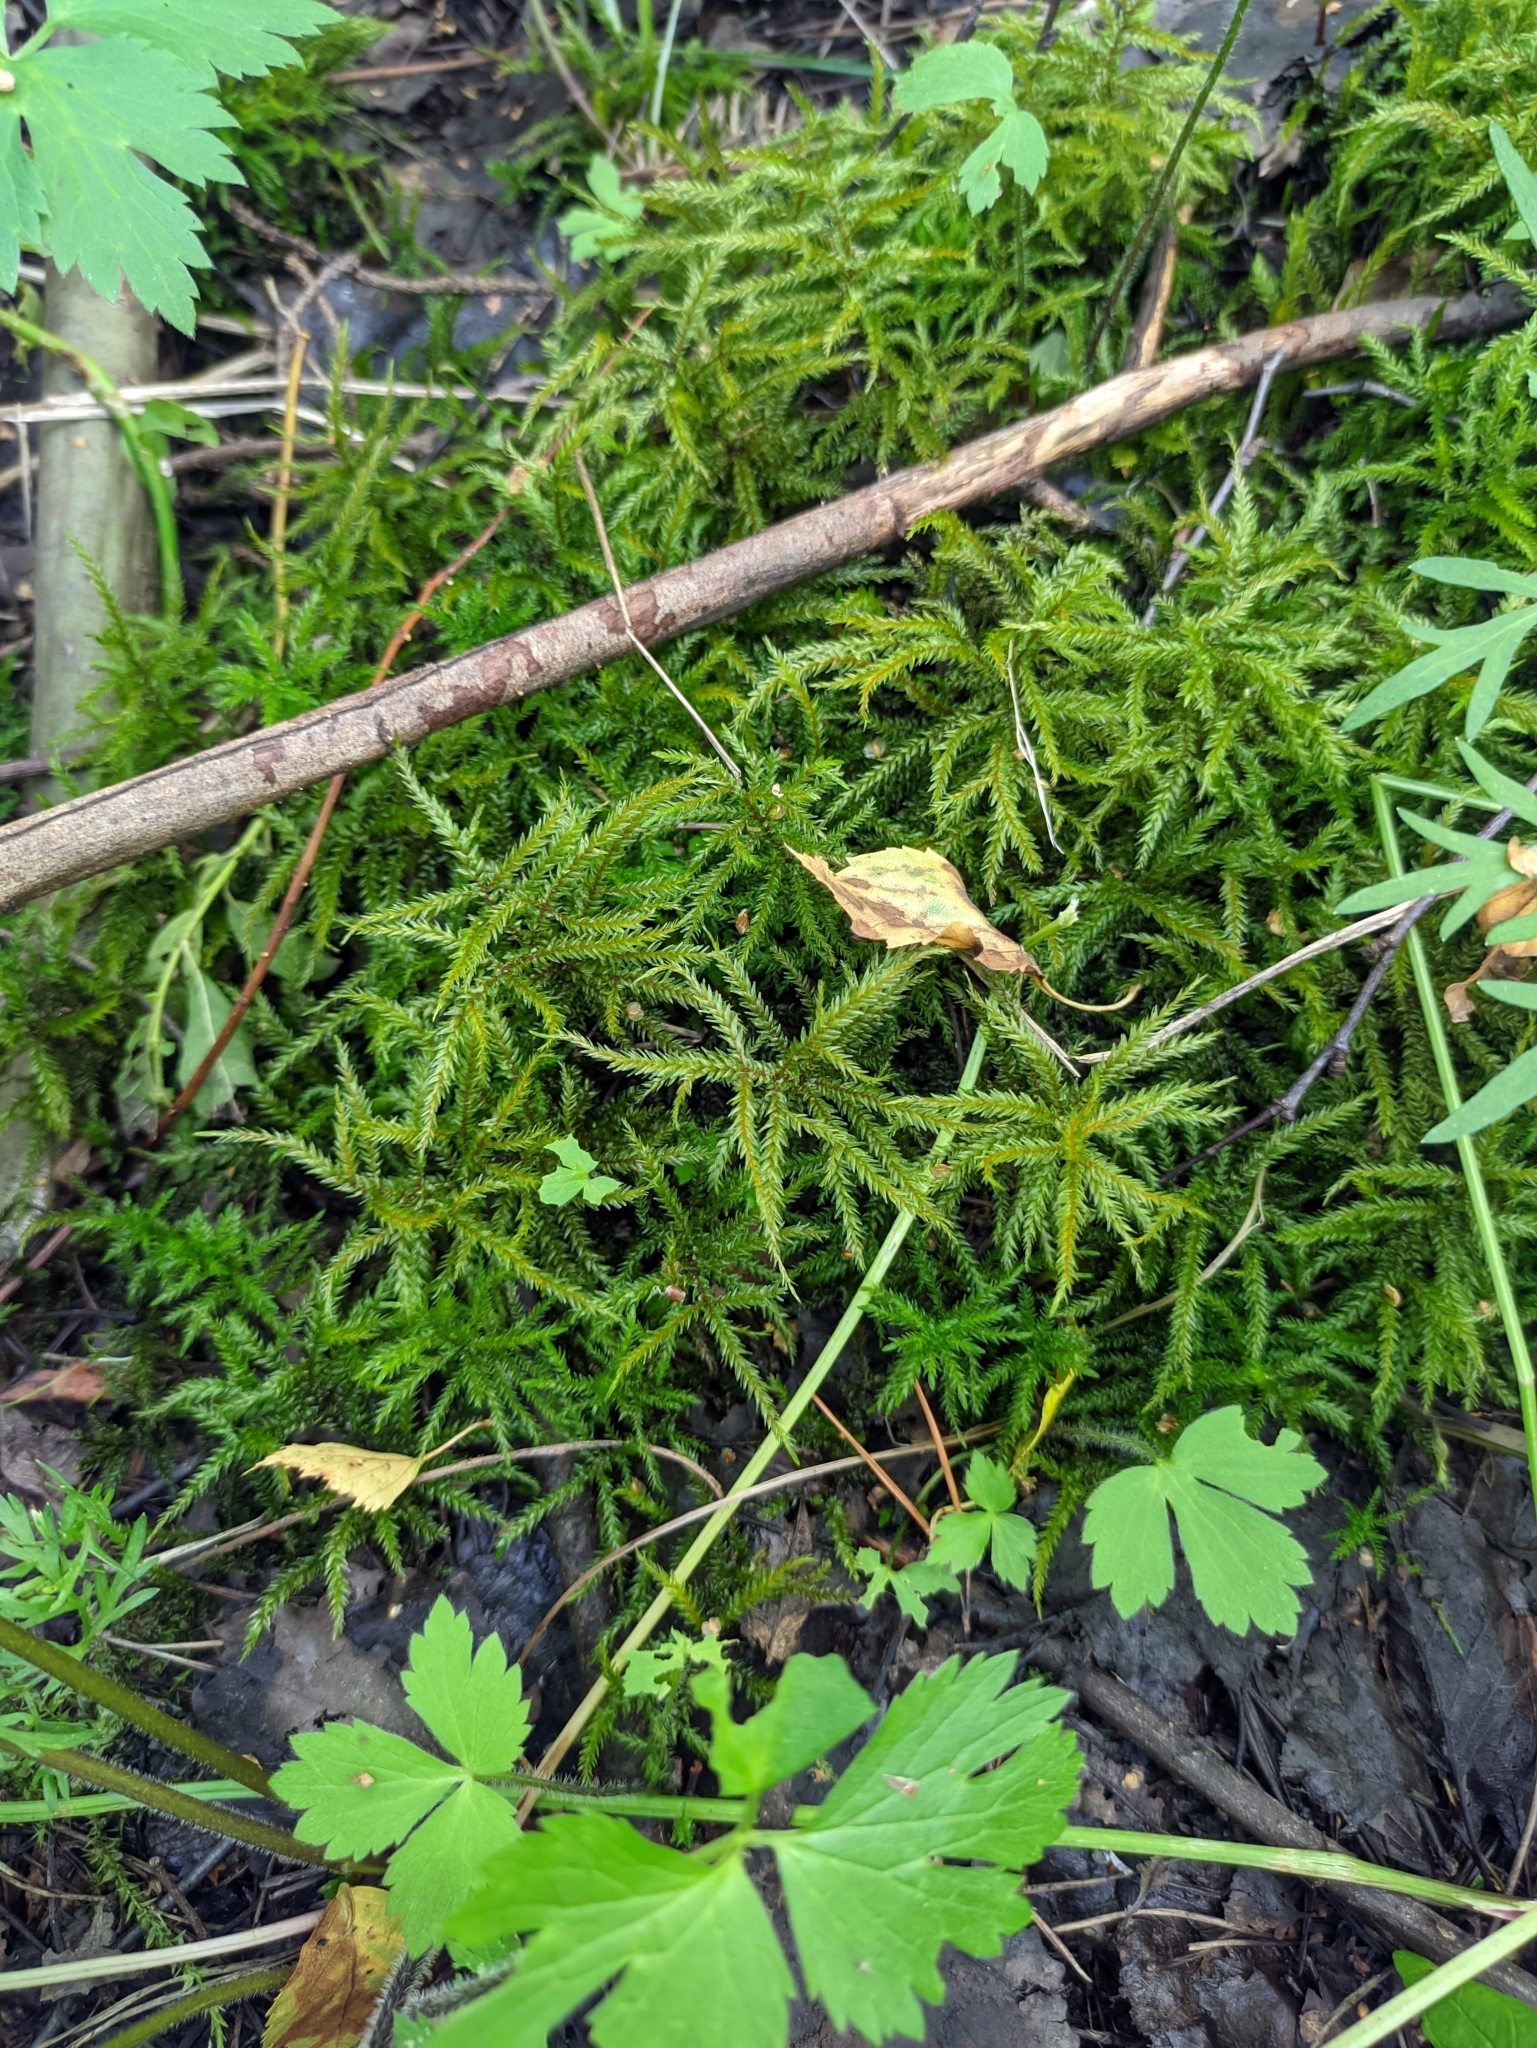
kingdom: Plantae
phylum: Bryophyta
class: Bryopsida
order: Hypnales
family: Climaciaceae
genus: Climacium
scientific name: Climacium dendroides
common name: Northern tree moss
